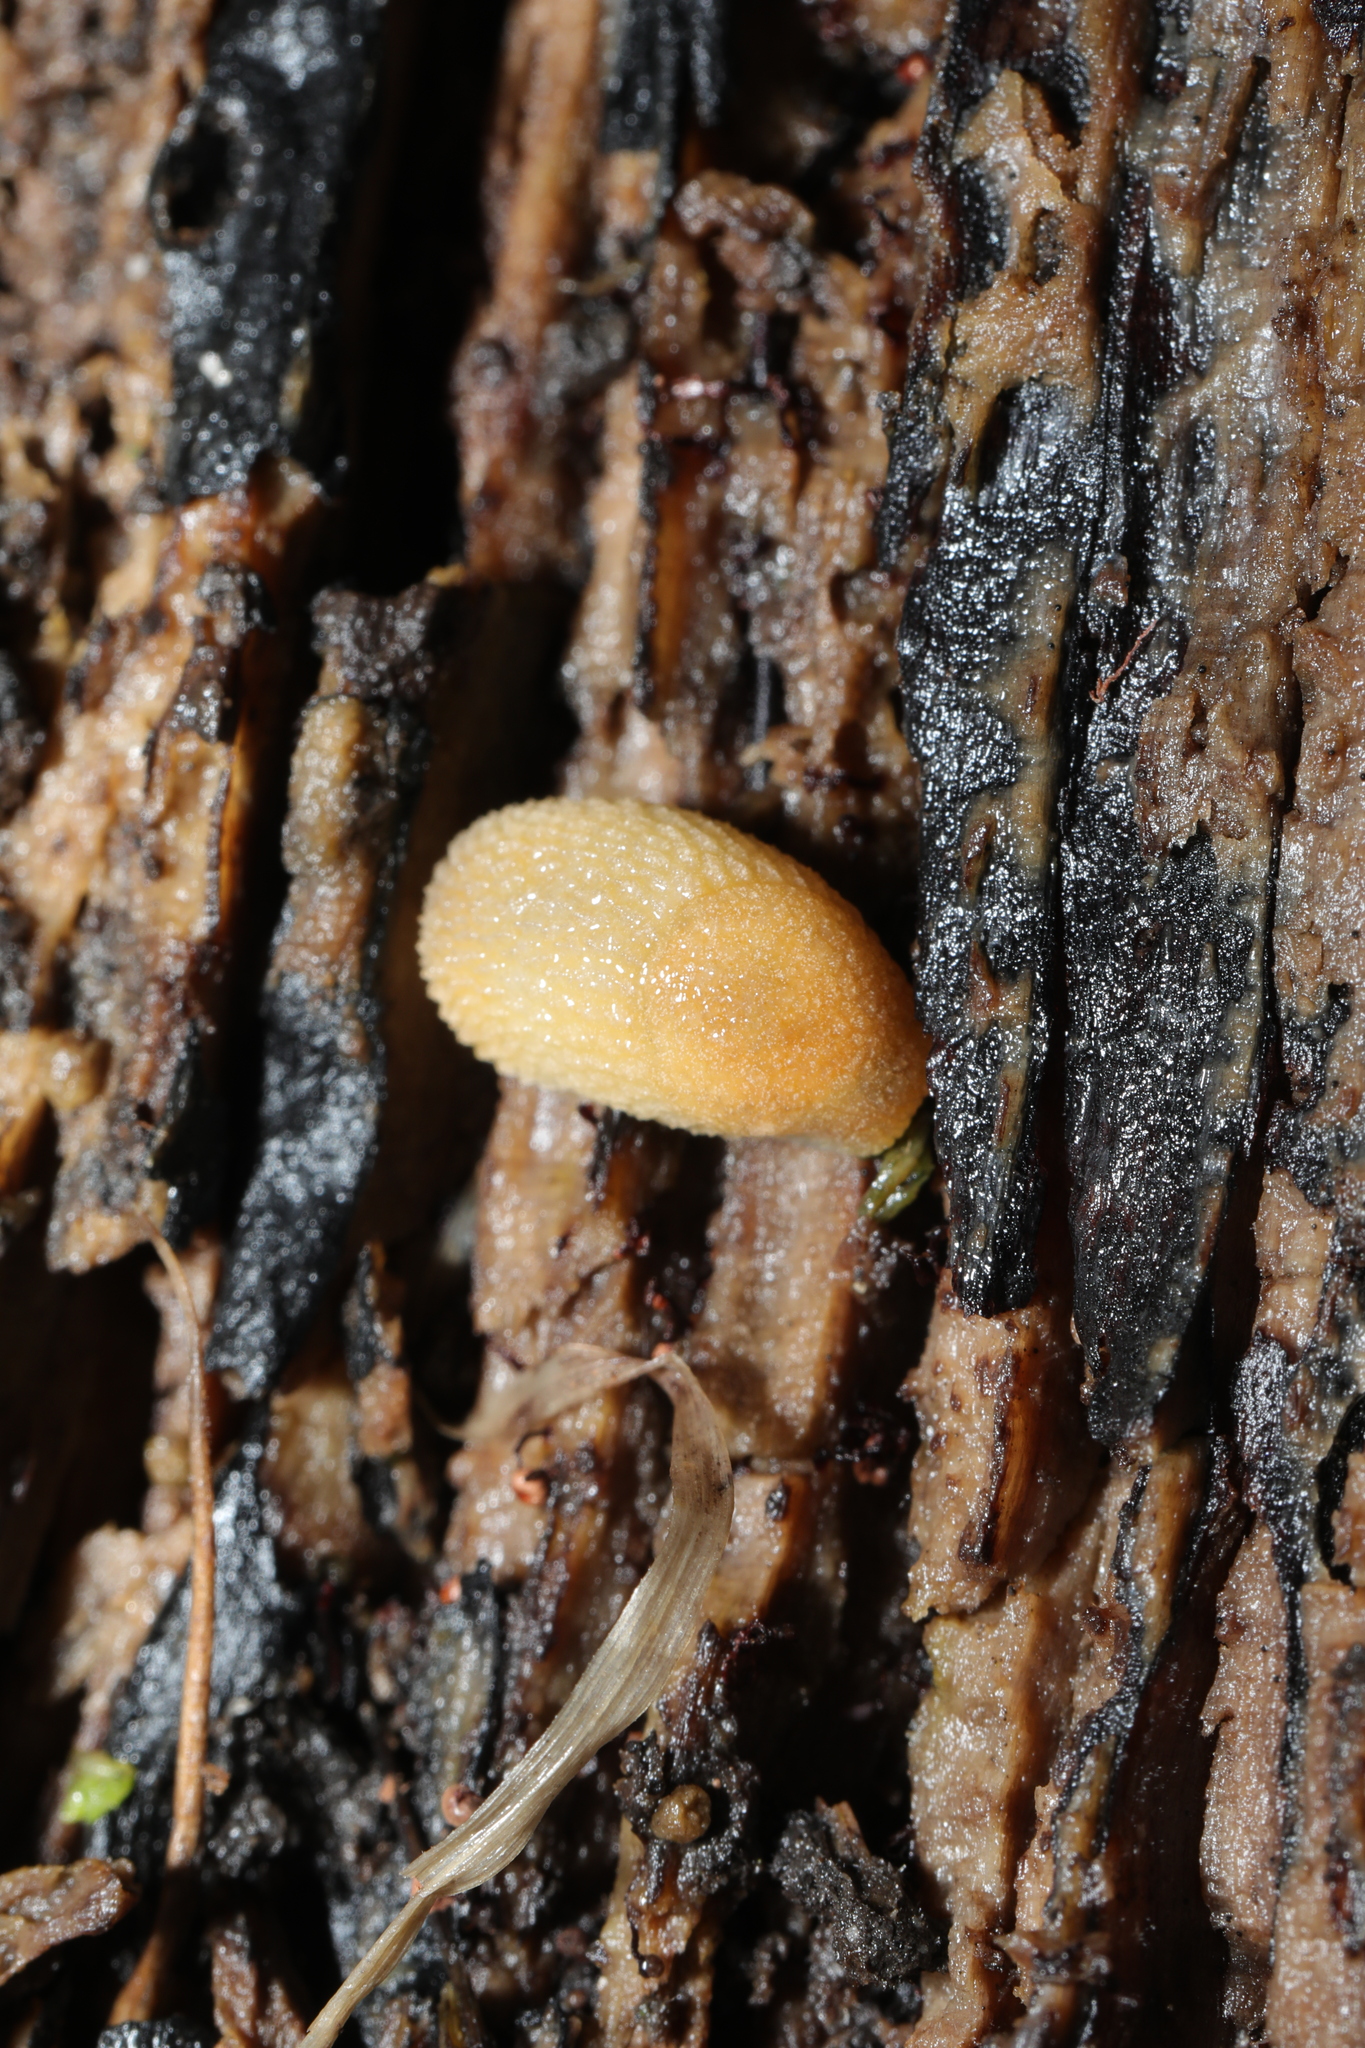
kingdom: Animalia
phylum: Mollusca
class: Gastropoda
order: Stylommatophora
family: Arionidae
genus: Arion
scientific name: Arion intermedius
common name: Hedgehog slug
